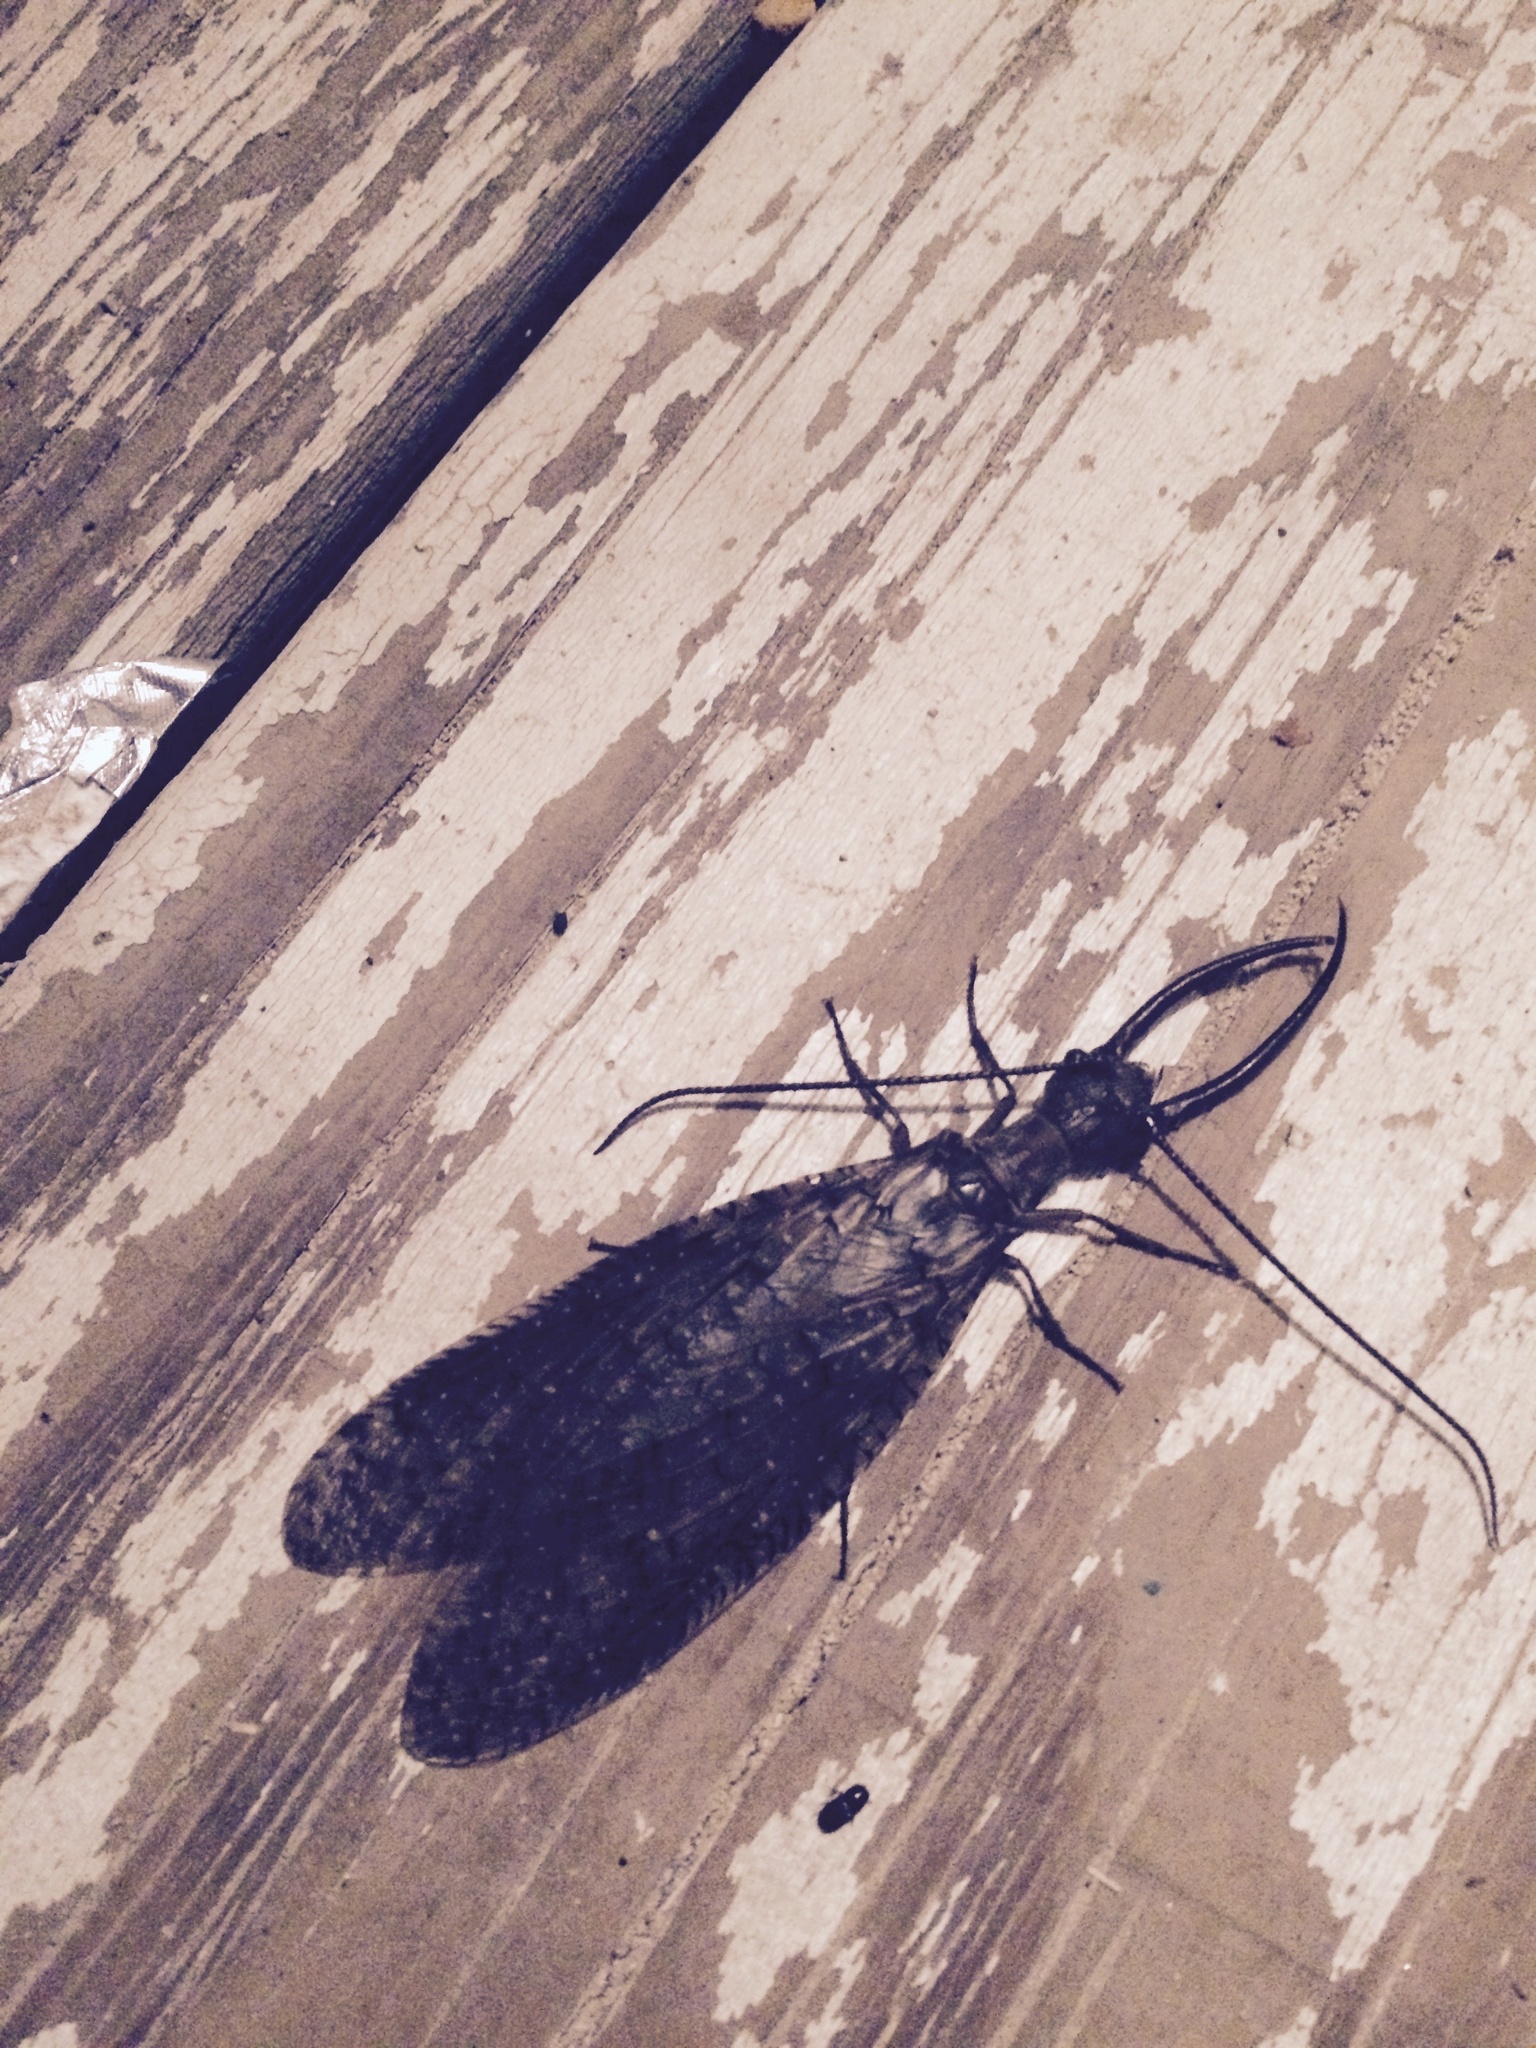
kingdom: Animalia
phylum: Arthropoda
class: Insecta
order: Megaloptera
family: Corydalidae
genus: Corydalus
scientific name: Corydalus cornutus
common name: Dobsonfly
